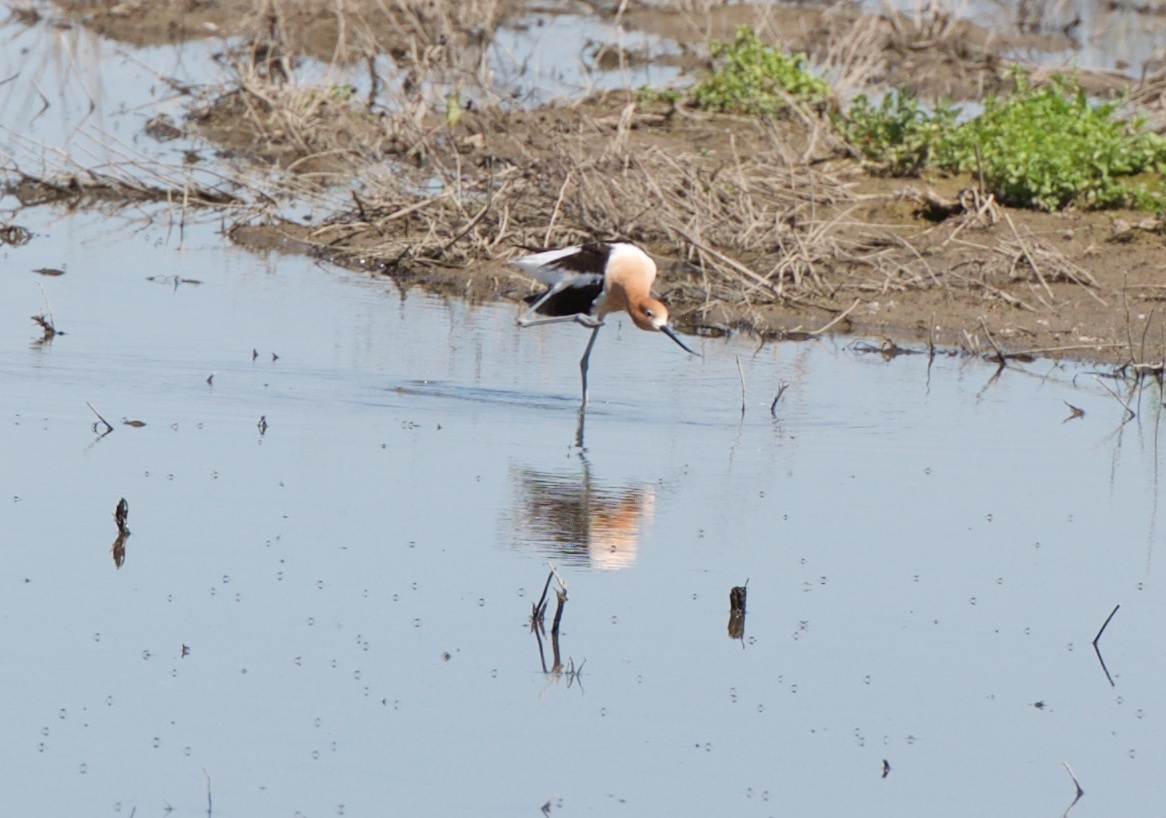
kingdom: Animalia
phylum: Chordata
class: Aves
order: Charadriiformes
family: Recurvirostridae
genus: Recurvirostra
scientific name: Recurvirostra americana
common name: American avocet
